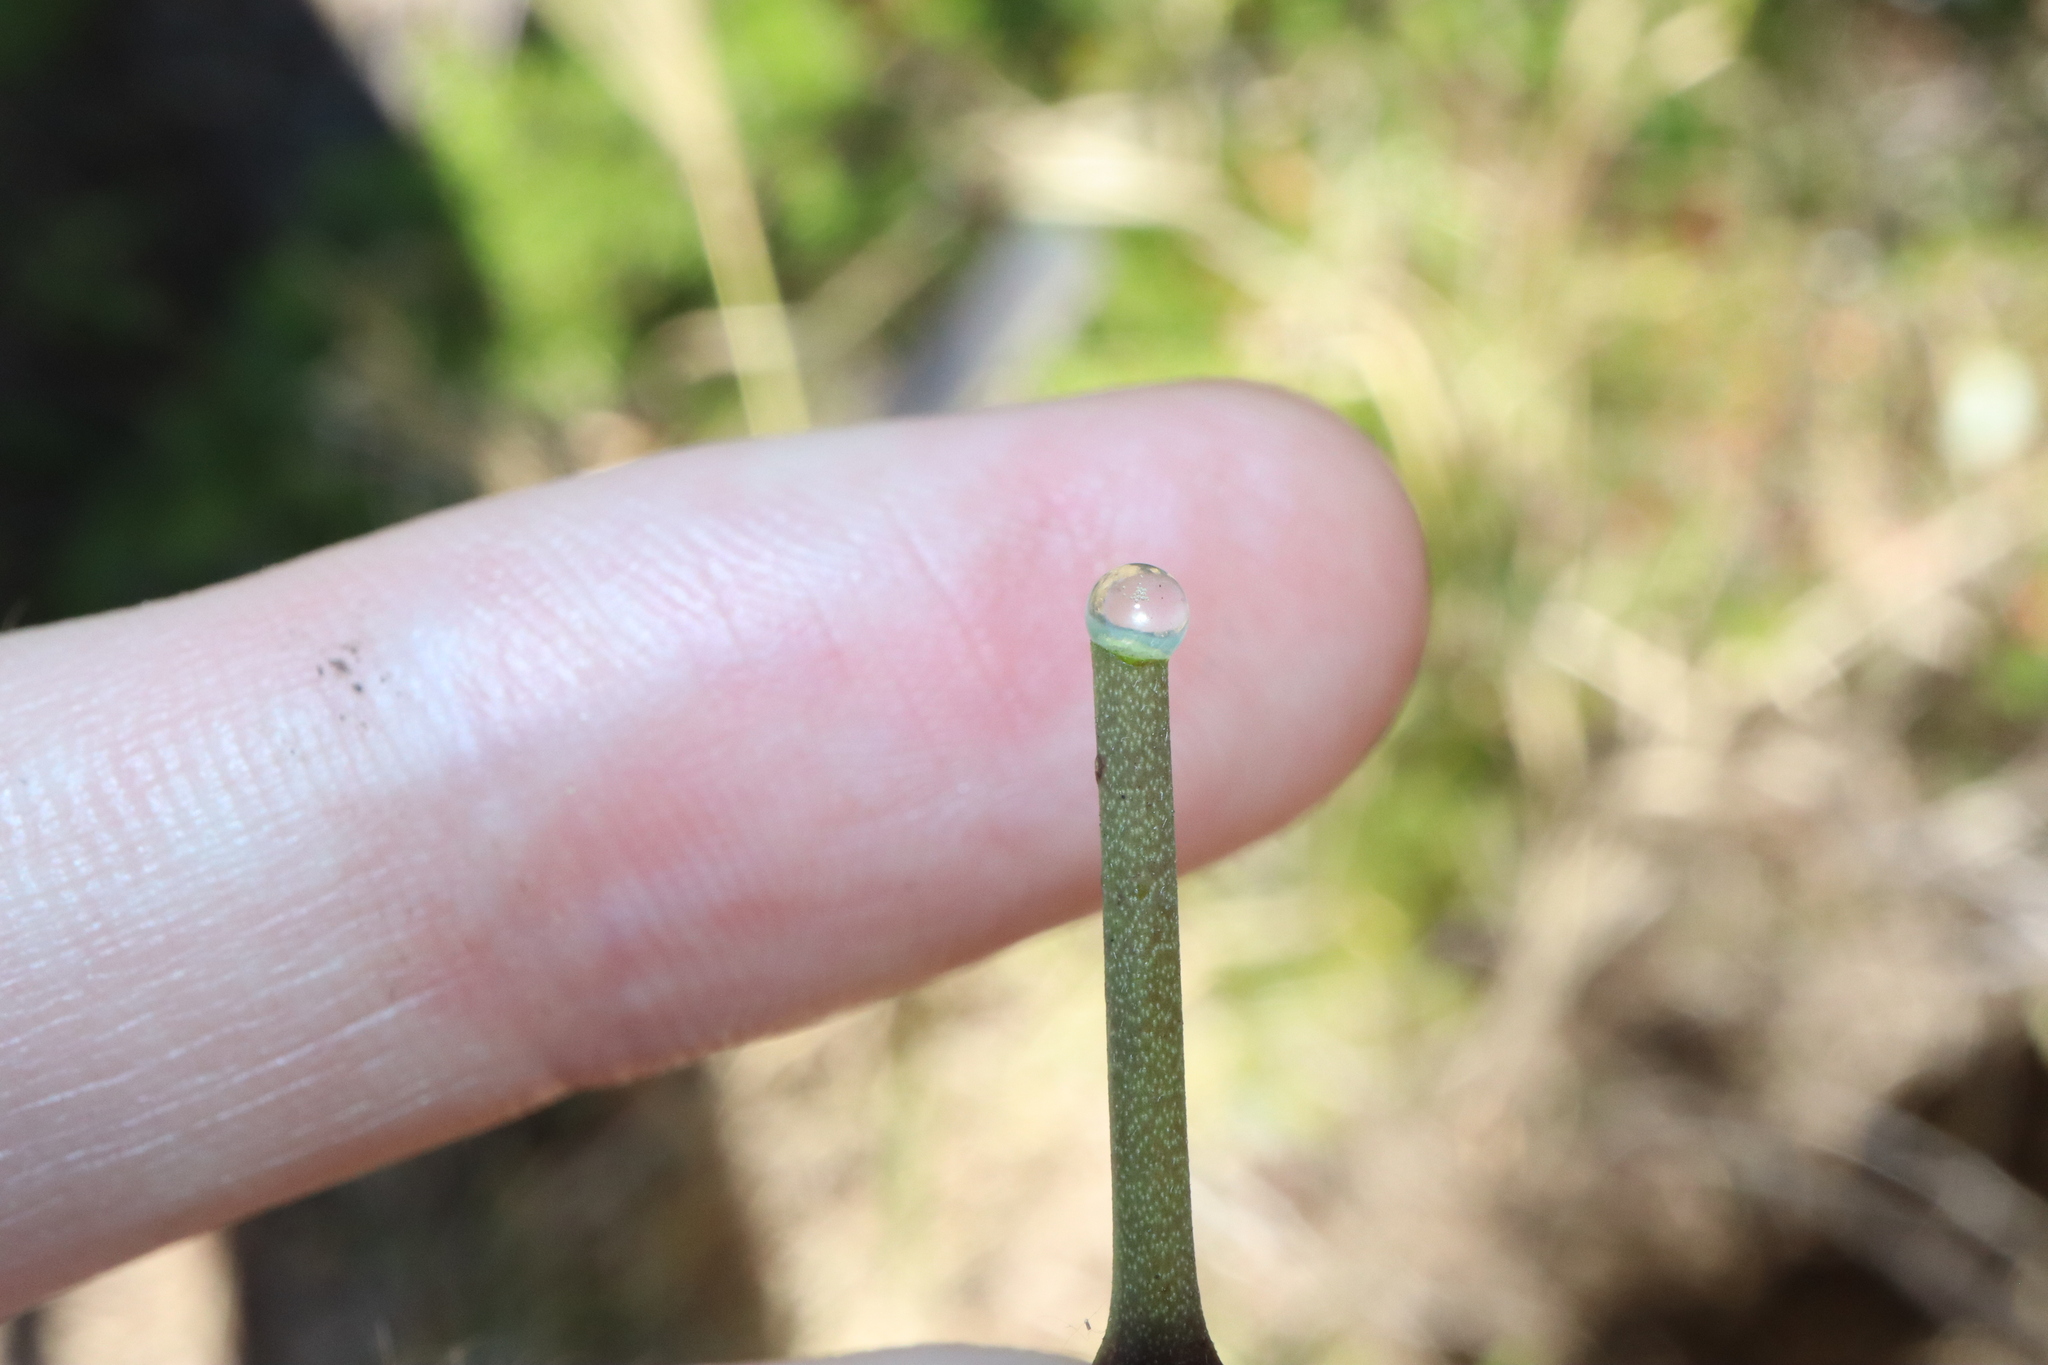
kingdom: Plantae
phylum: Tracheophyta
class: Magnoliopsida
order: Gentianales
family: Apocynaceae
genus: Vincetoxicum
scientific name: Vincetoxicum carnosum
